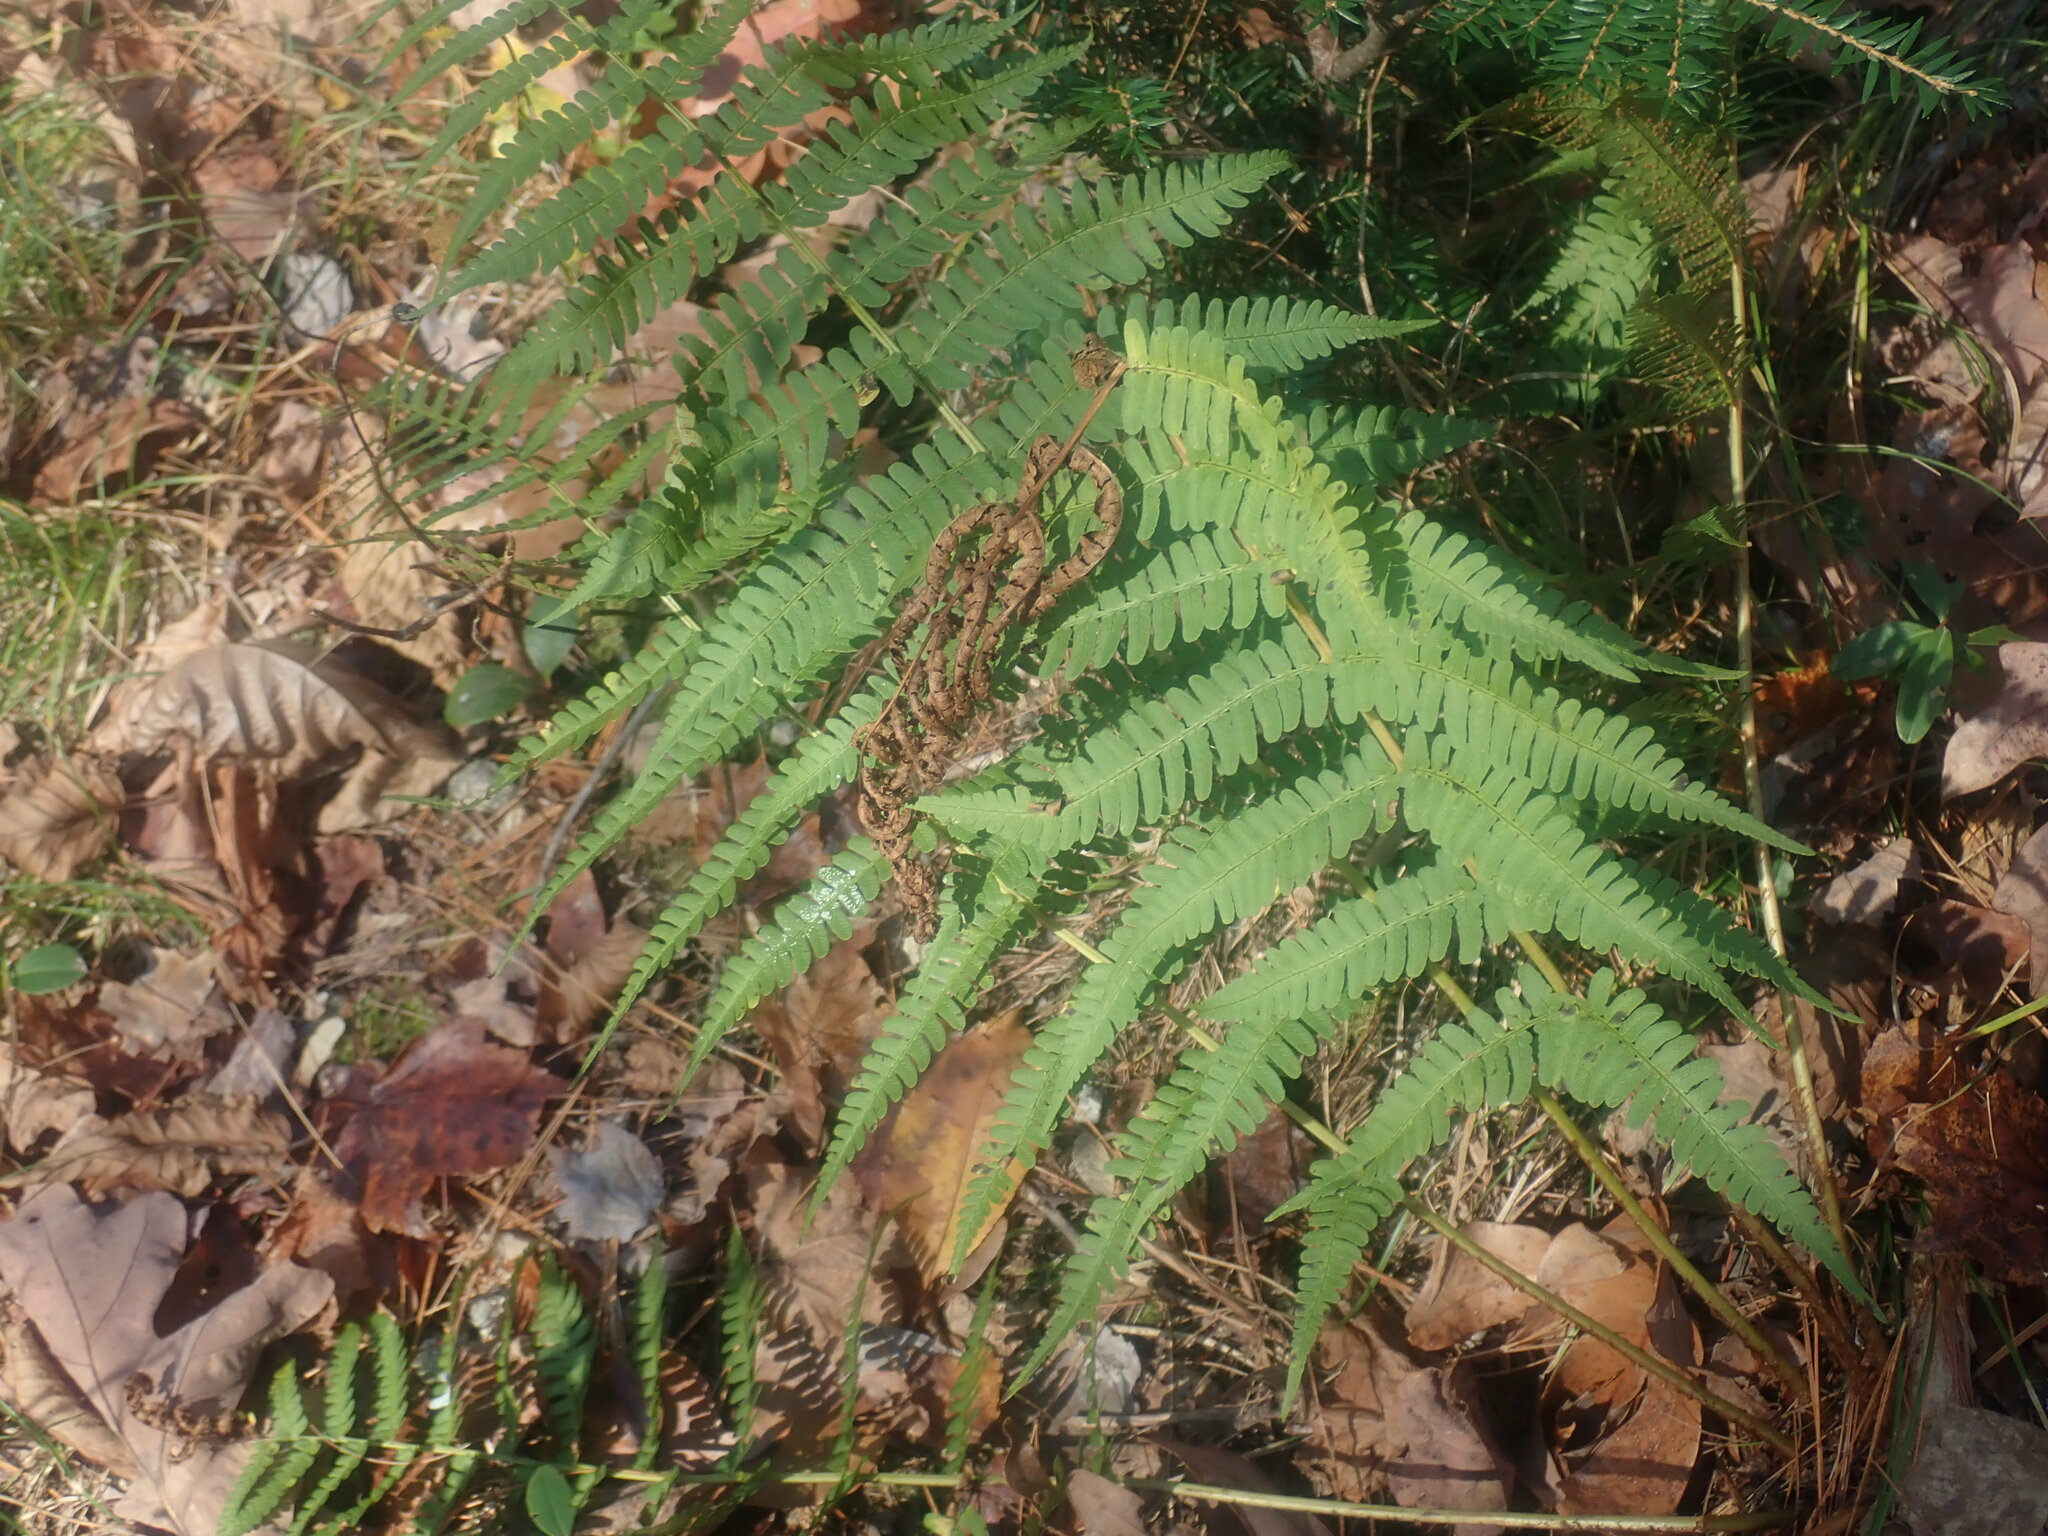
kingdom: Plantae
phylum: Tracheophyta
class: Polypodiopsida
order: Polypodiales
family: Dryopteridaceae
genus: Dryopteris
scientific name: Dryopteris marginalis
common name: Marginal wood fern
